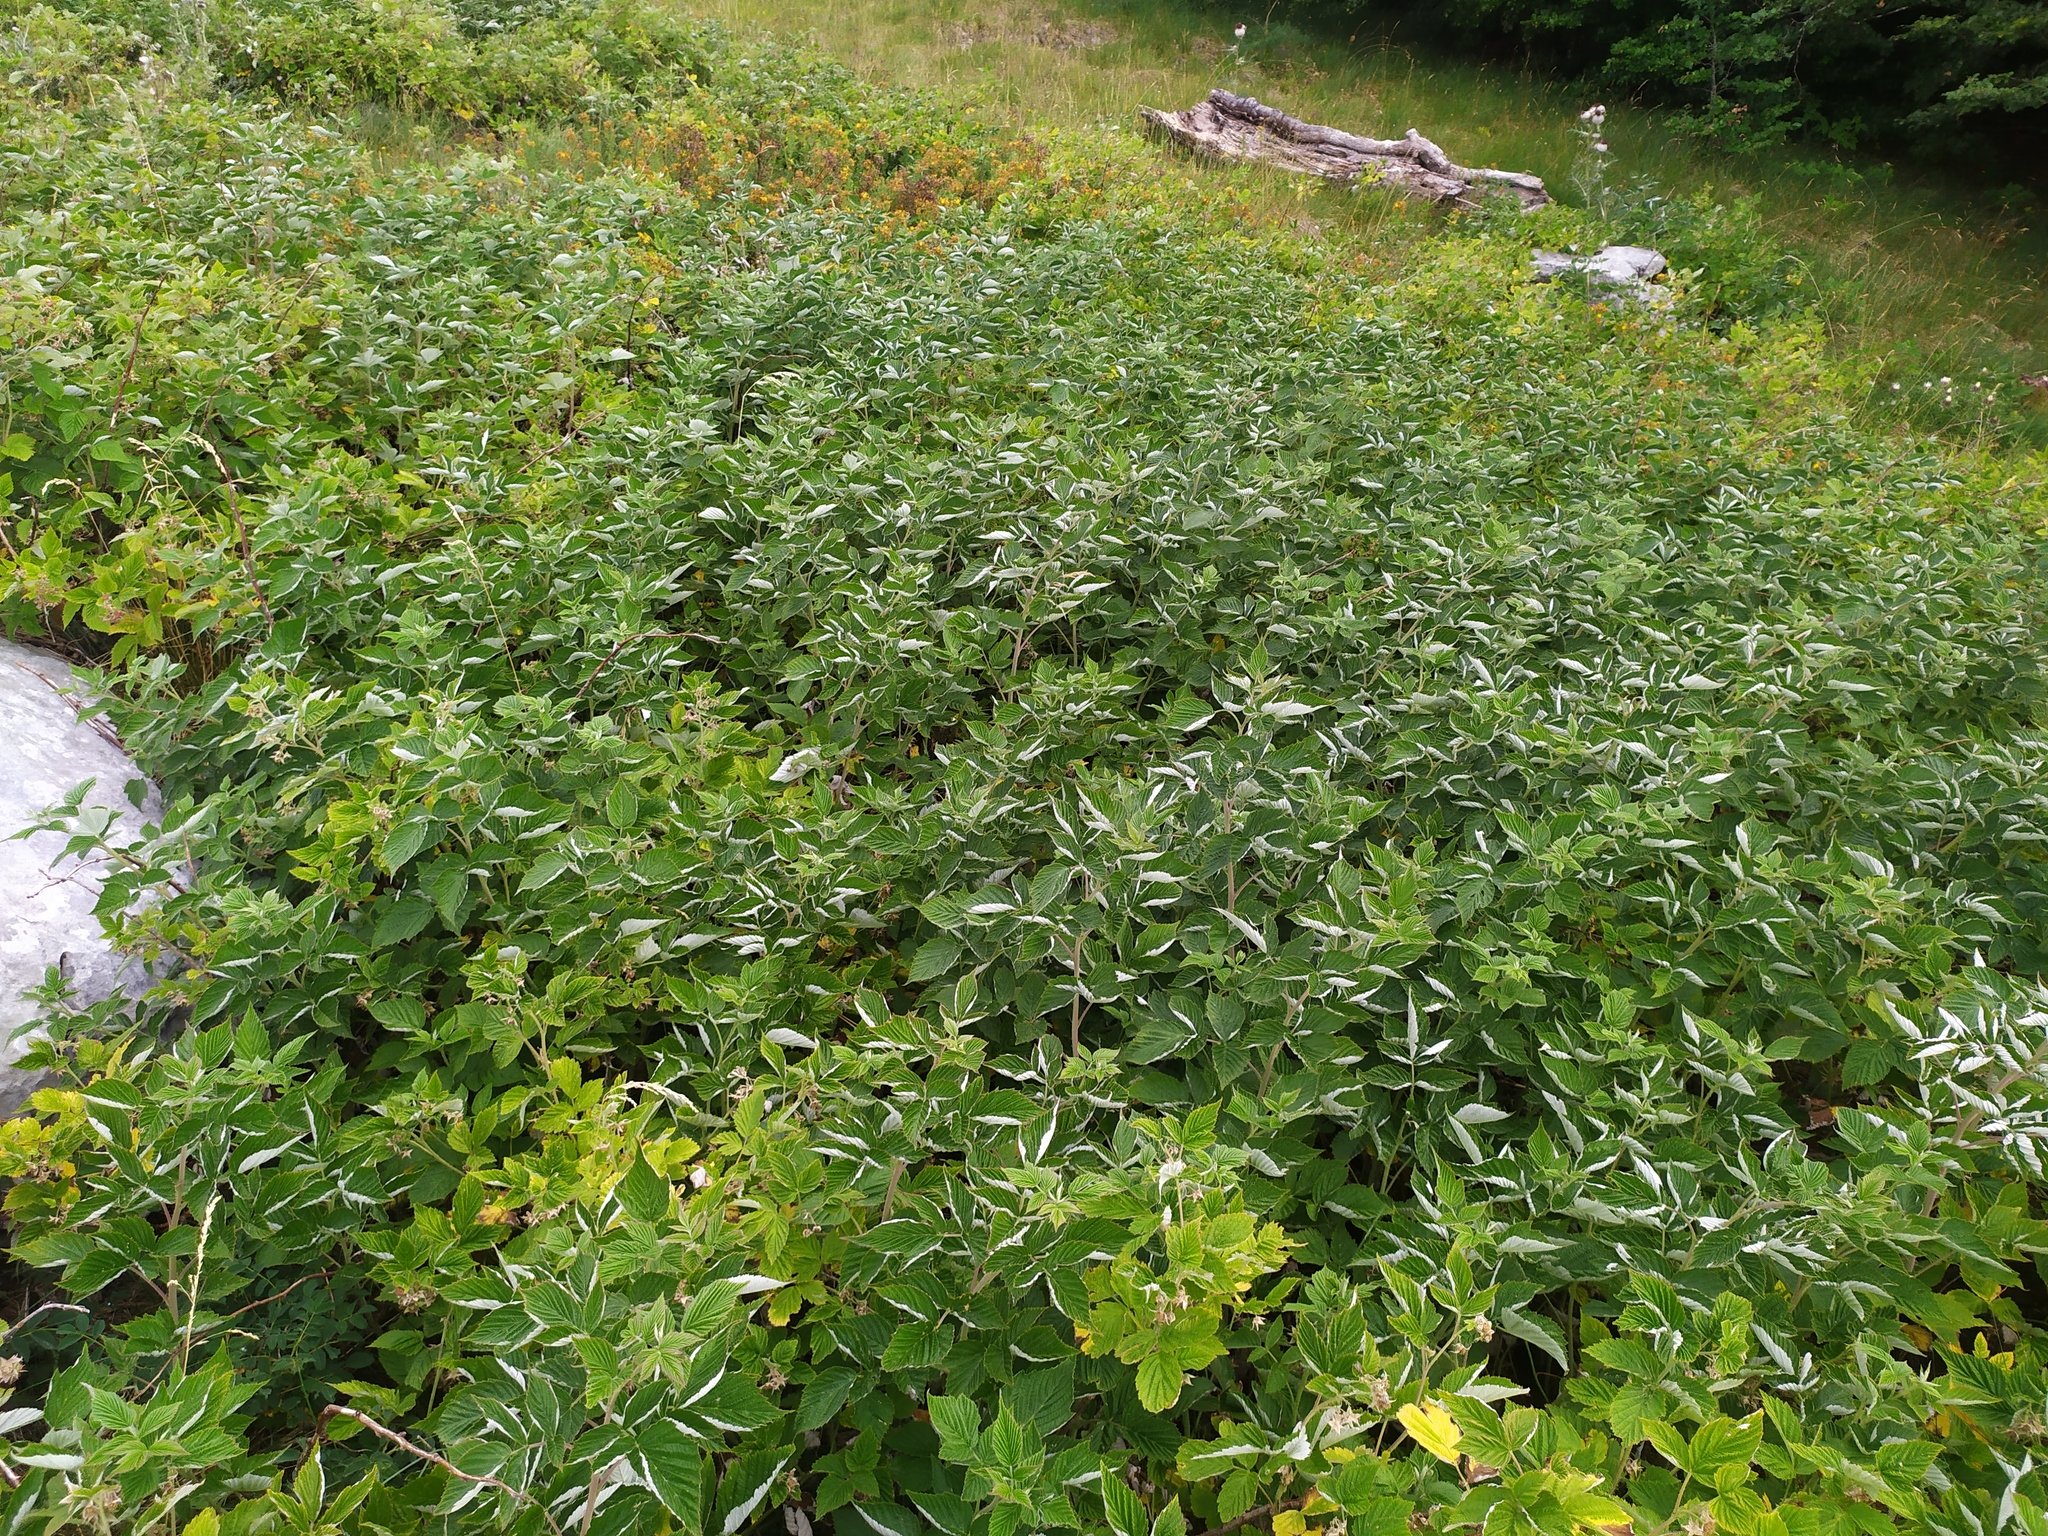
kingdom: Plantae
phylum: Tracheophyta
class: Magnoliopsida
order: Rosales
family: Rosaceae
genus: Rubus
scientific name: Rubus idaeus
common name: Raspberry
